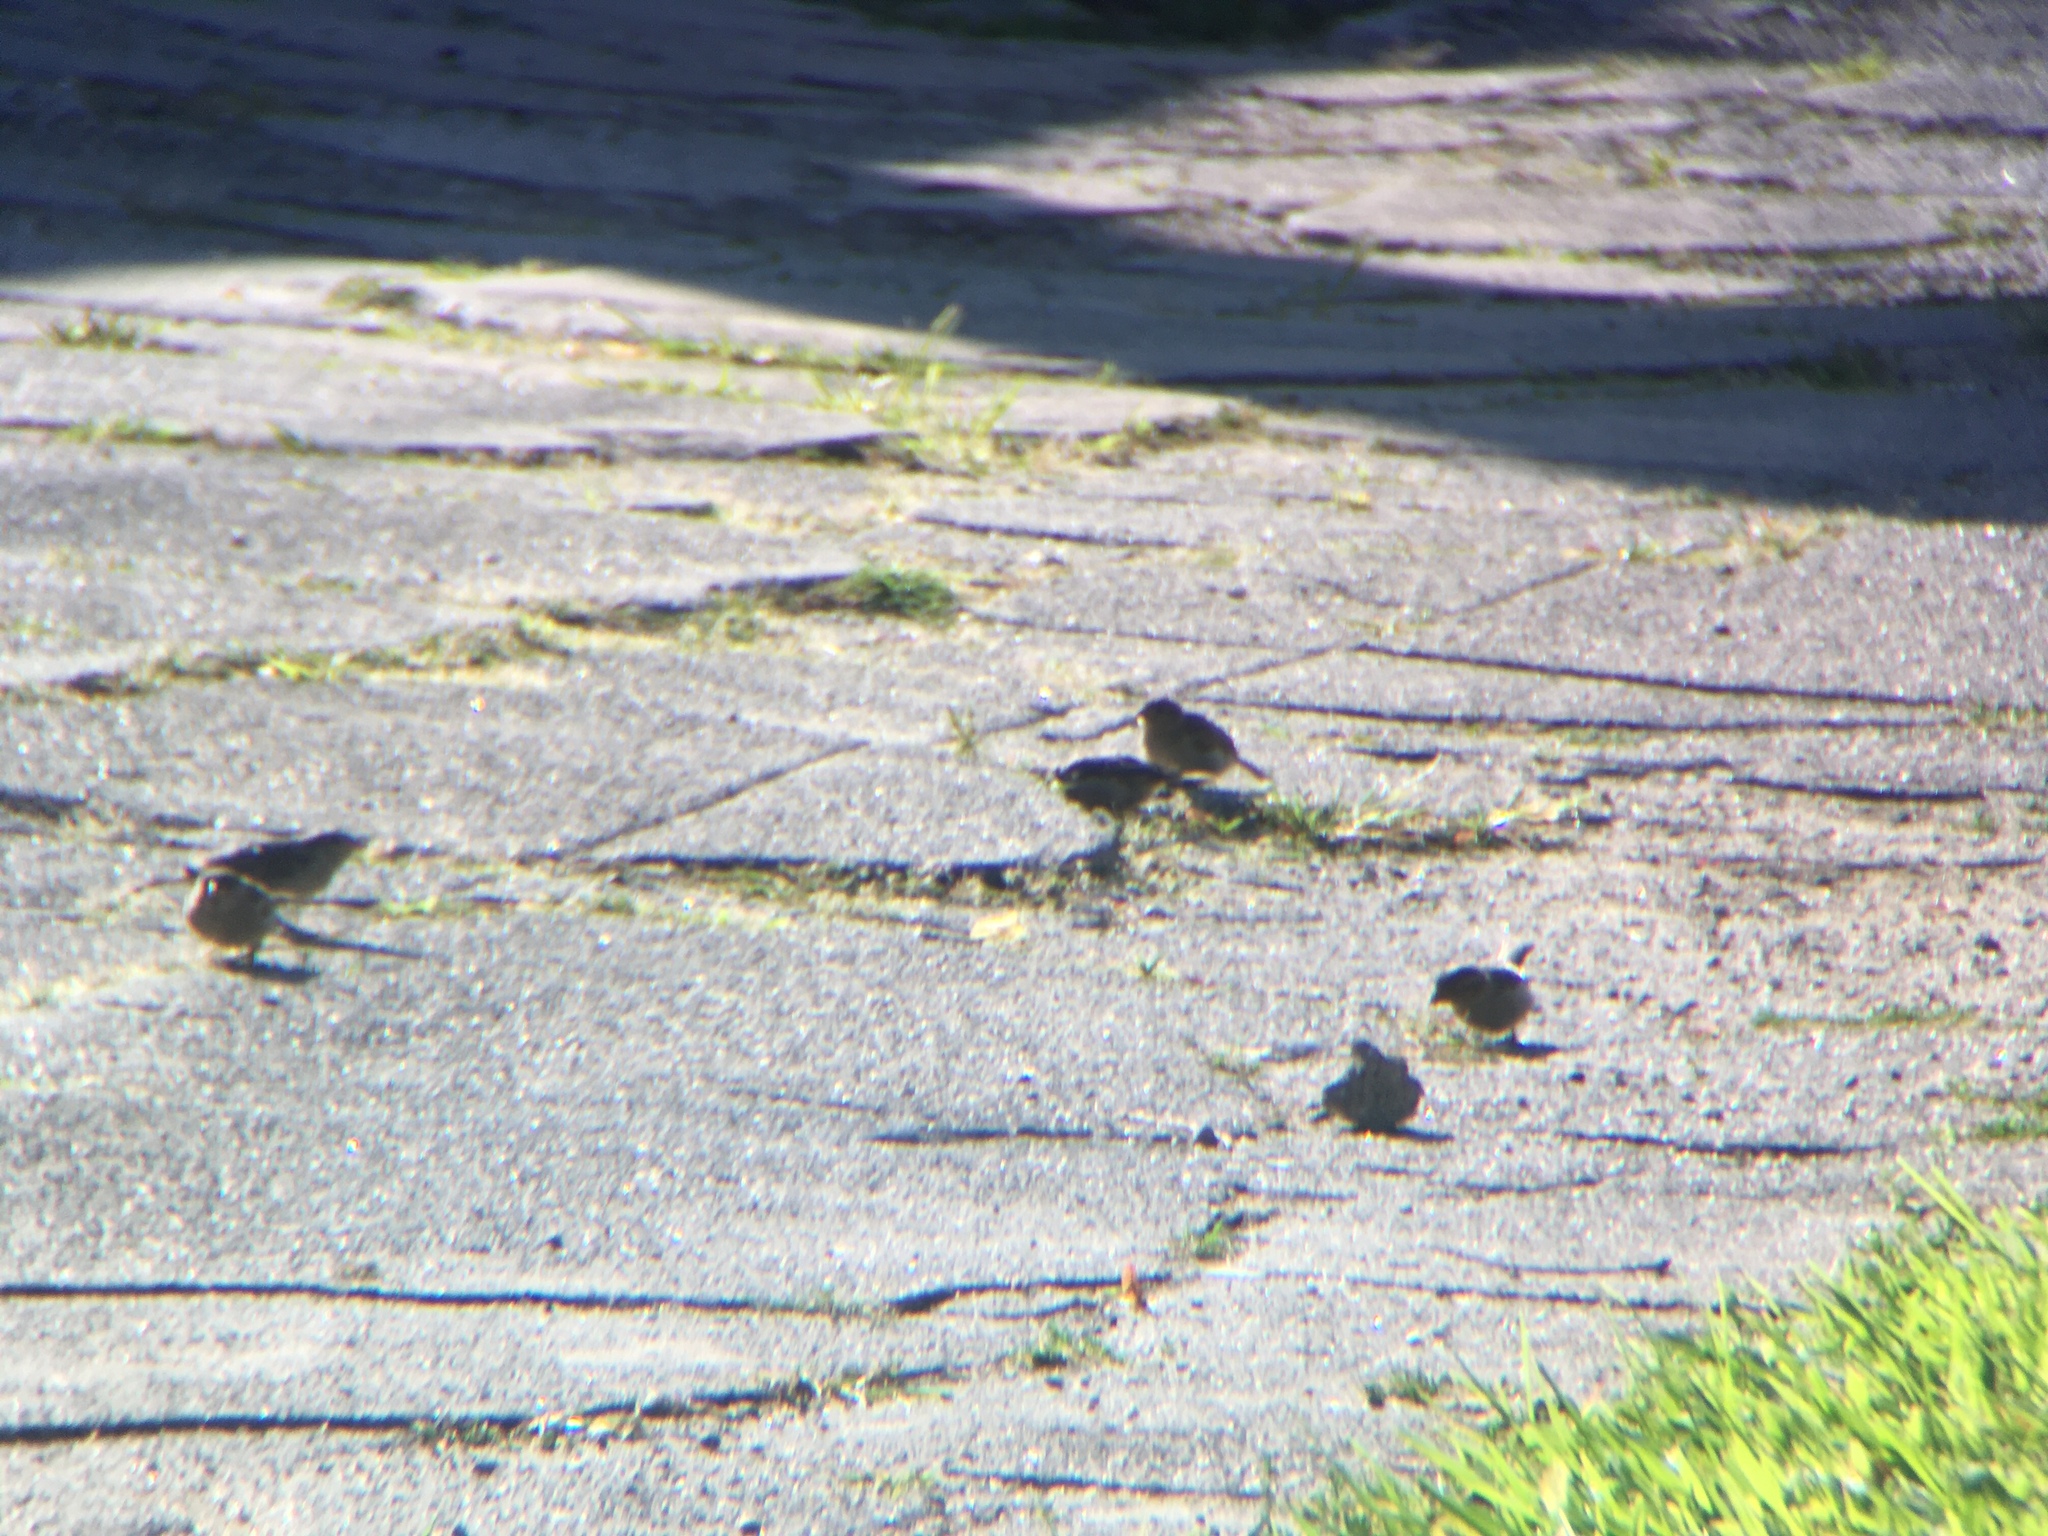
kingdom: Animalia
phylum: Chordata
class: Aves
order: Passeriformes
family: Passeridae
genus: Passer
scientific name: Passer domesticus
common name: House sparrow
